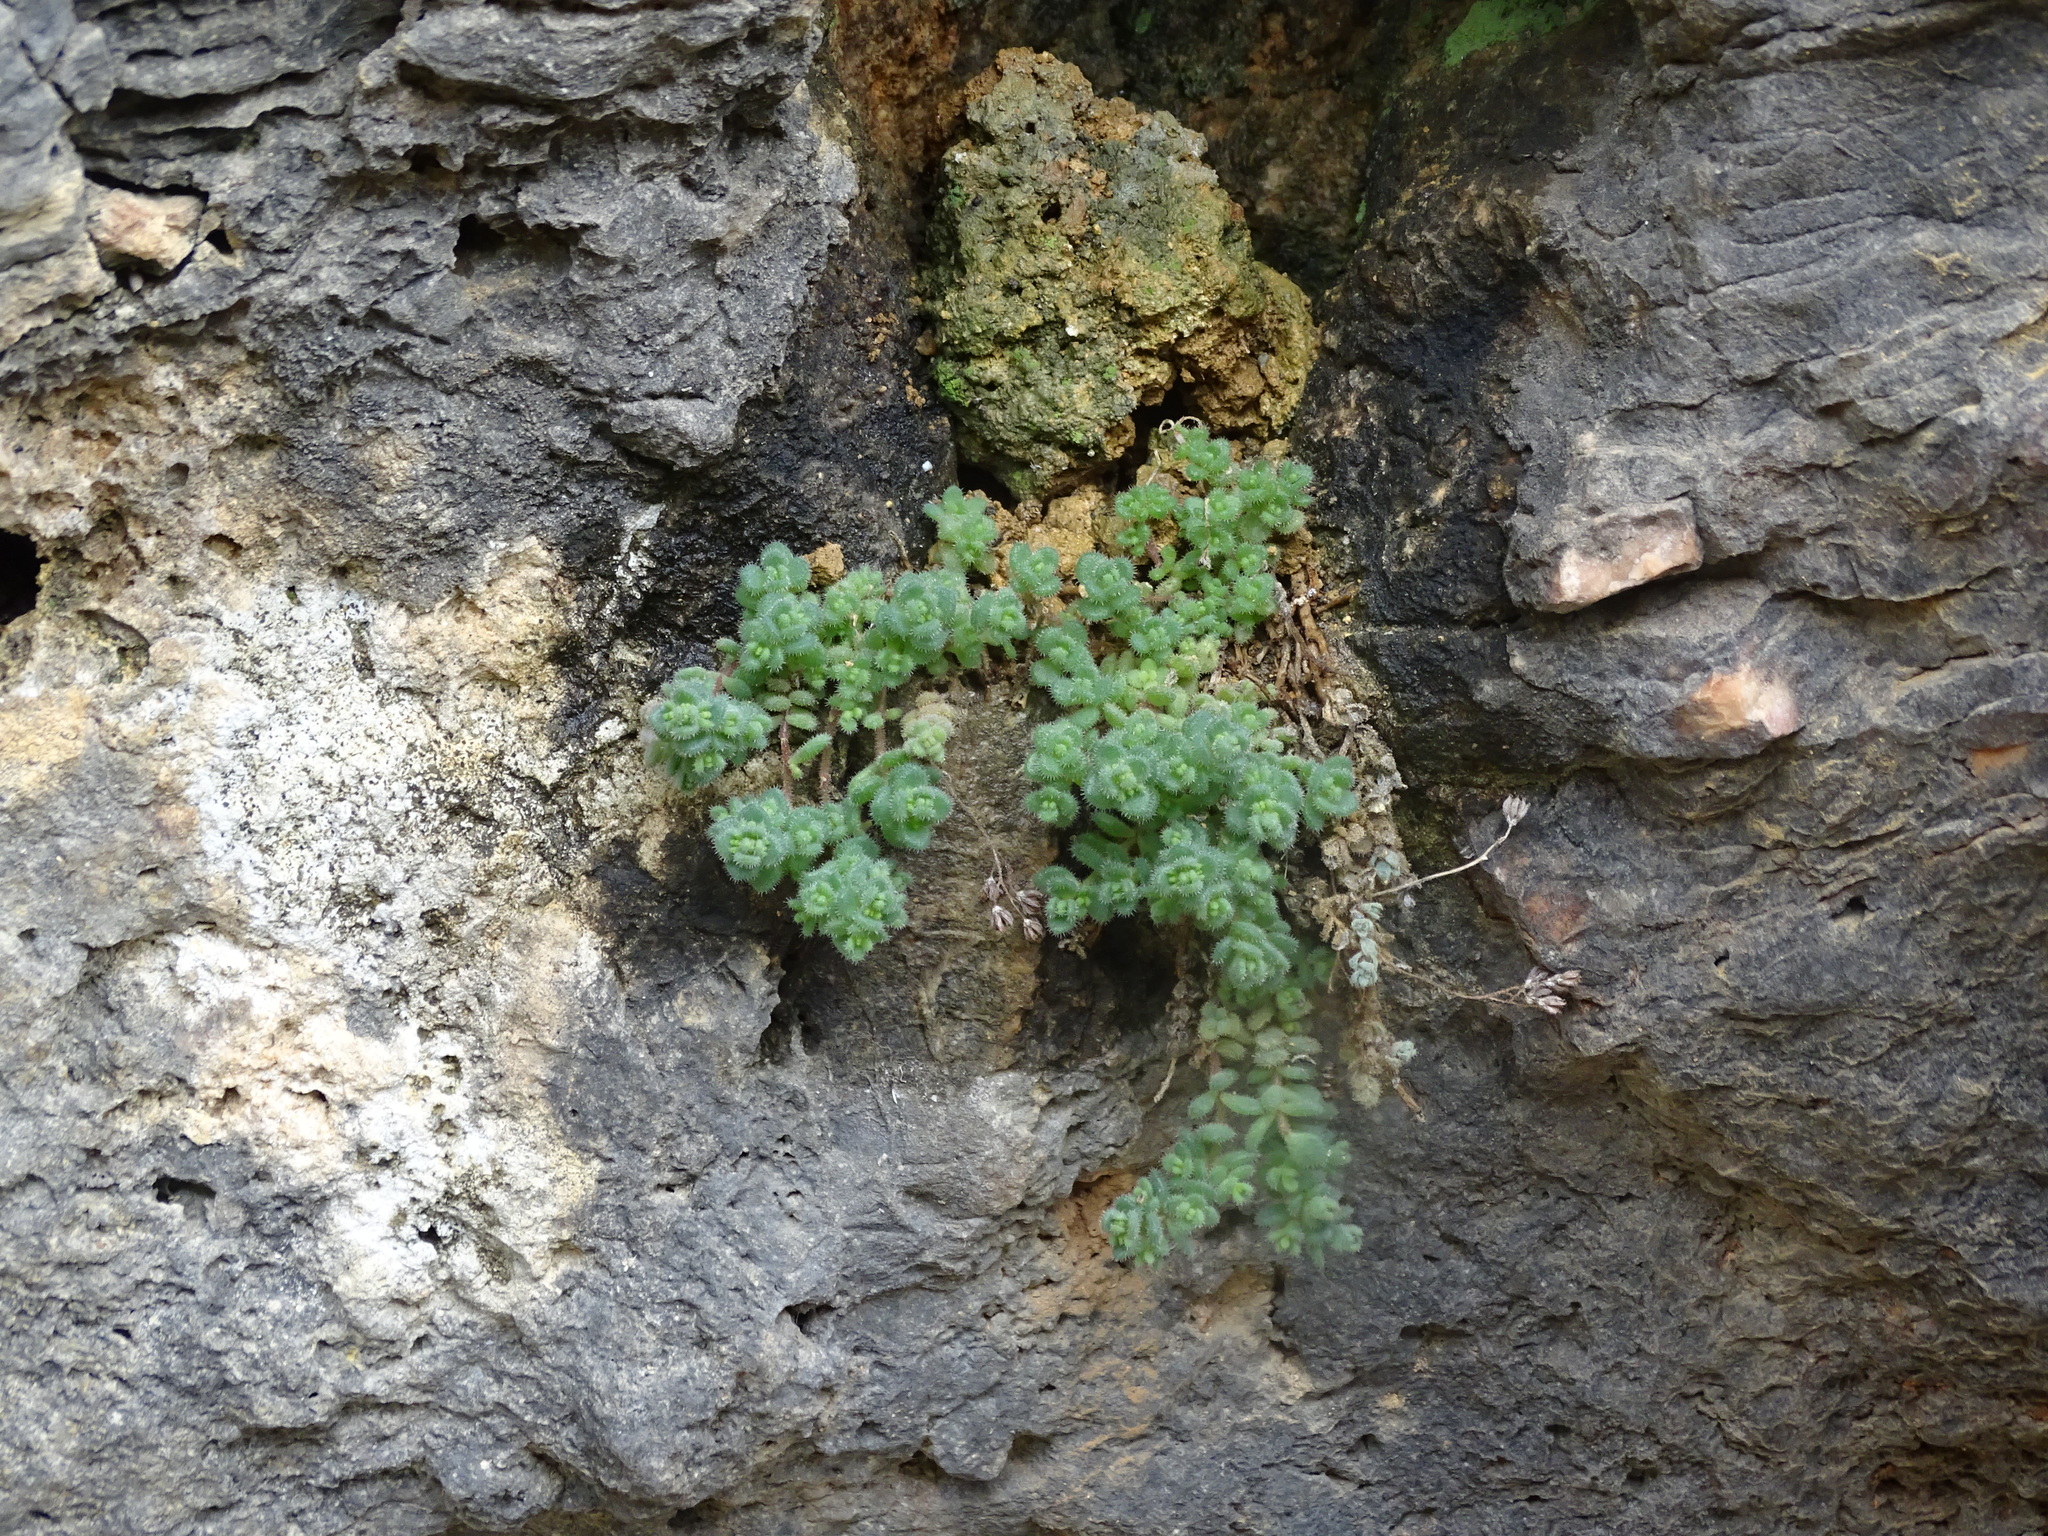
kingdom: Plantae
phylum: Tracheophyta
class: Magnoliopsida
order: Saxifragales
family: Crassulaceae
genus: Sedum
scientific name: Sedum dasyphyllum
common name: Thick-leaf stonecrop
